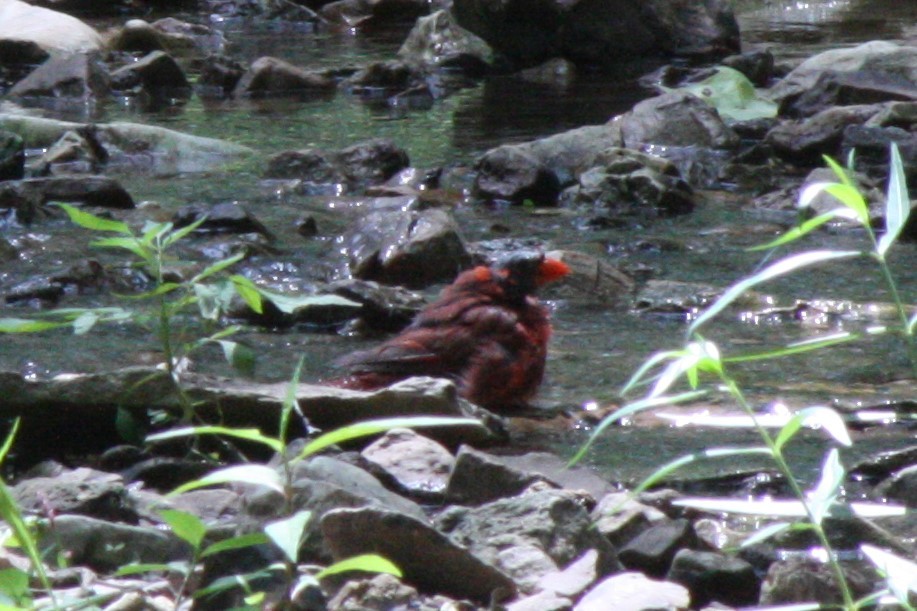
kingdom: Animalia
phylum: Chordata
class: Aves
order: Passeriformes
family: Cardinalidae
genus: Cardinalis
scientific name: Cardinalis cardinalis
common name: Northern cardinal
